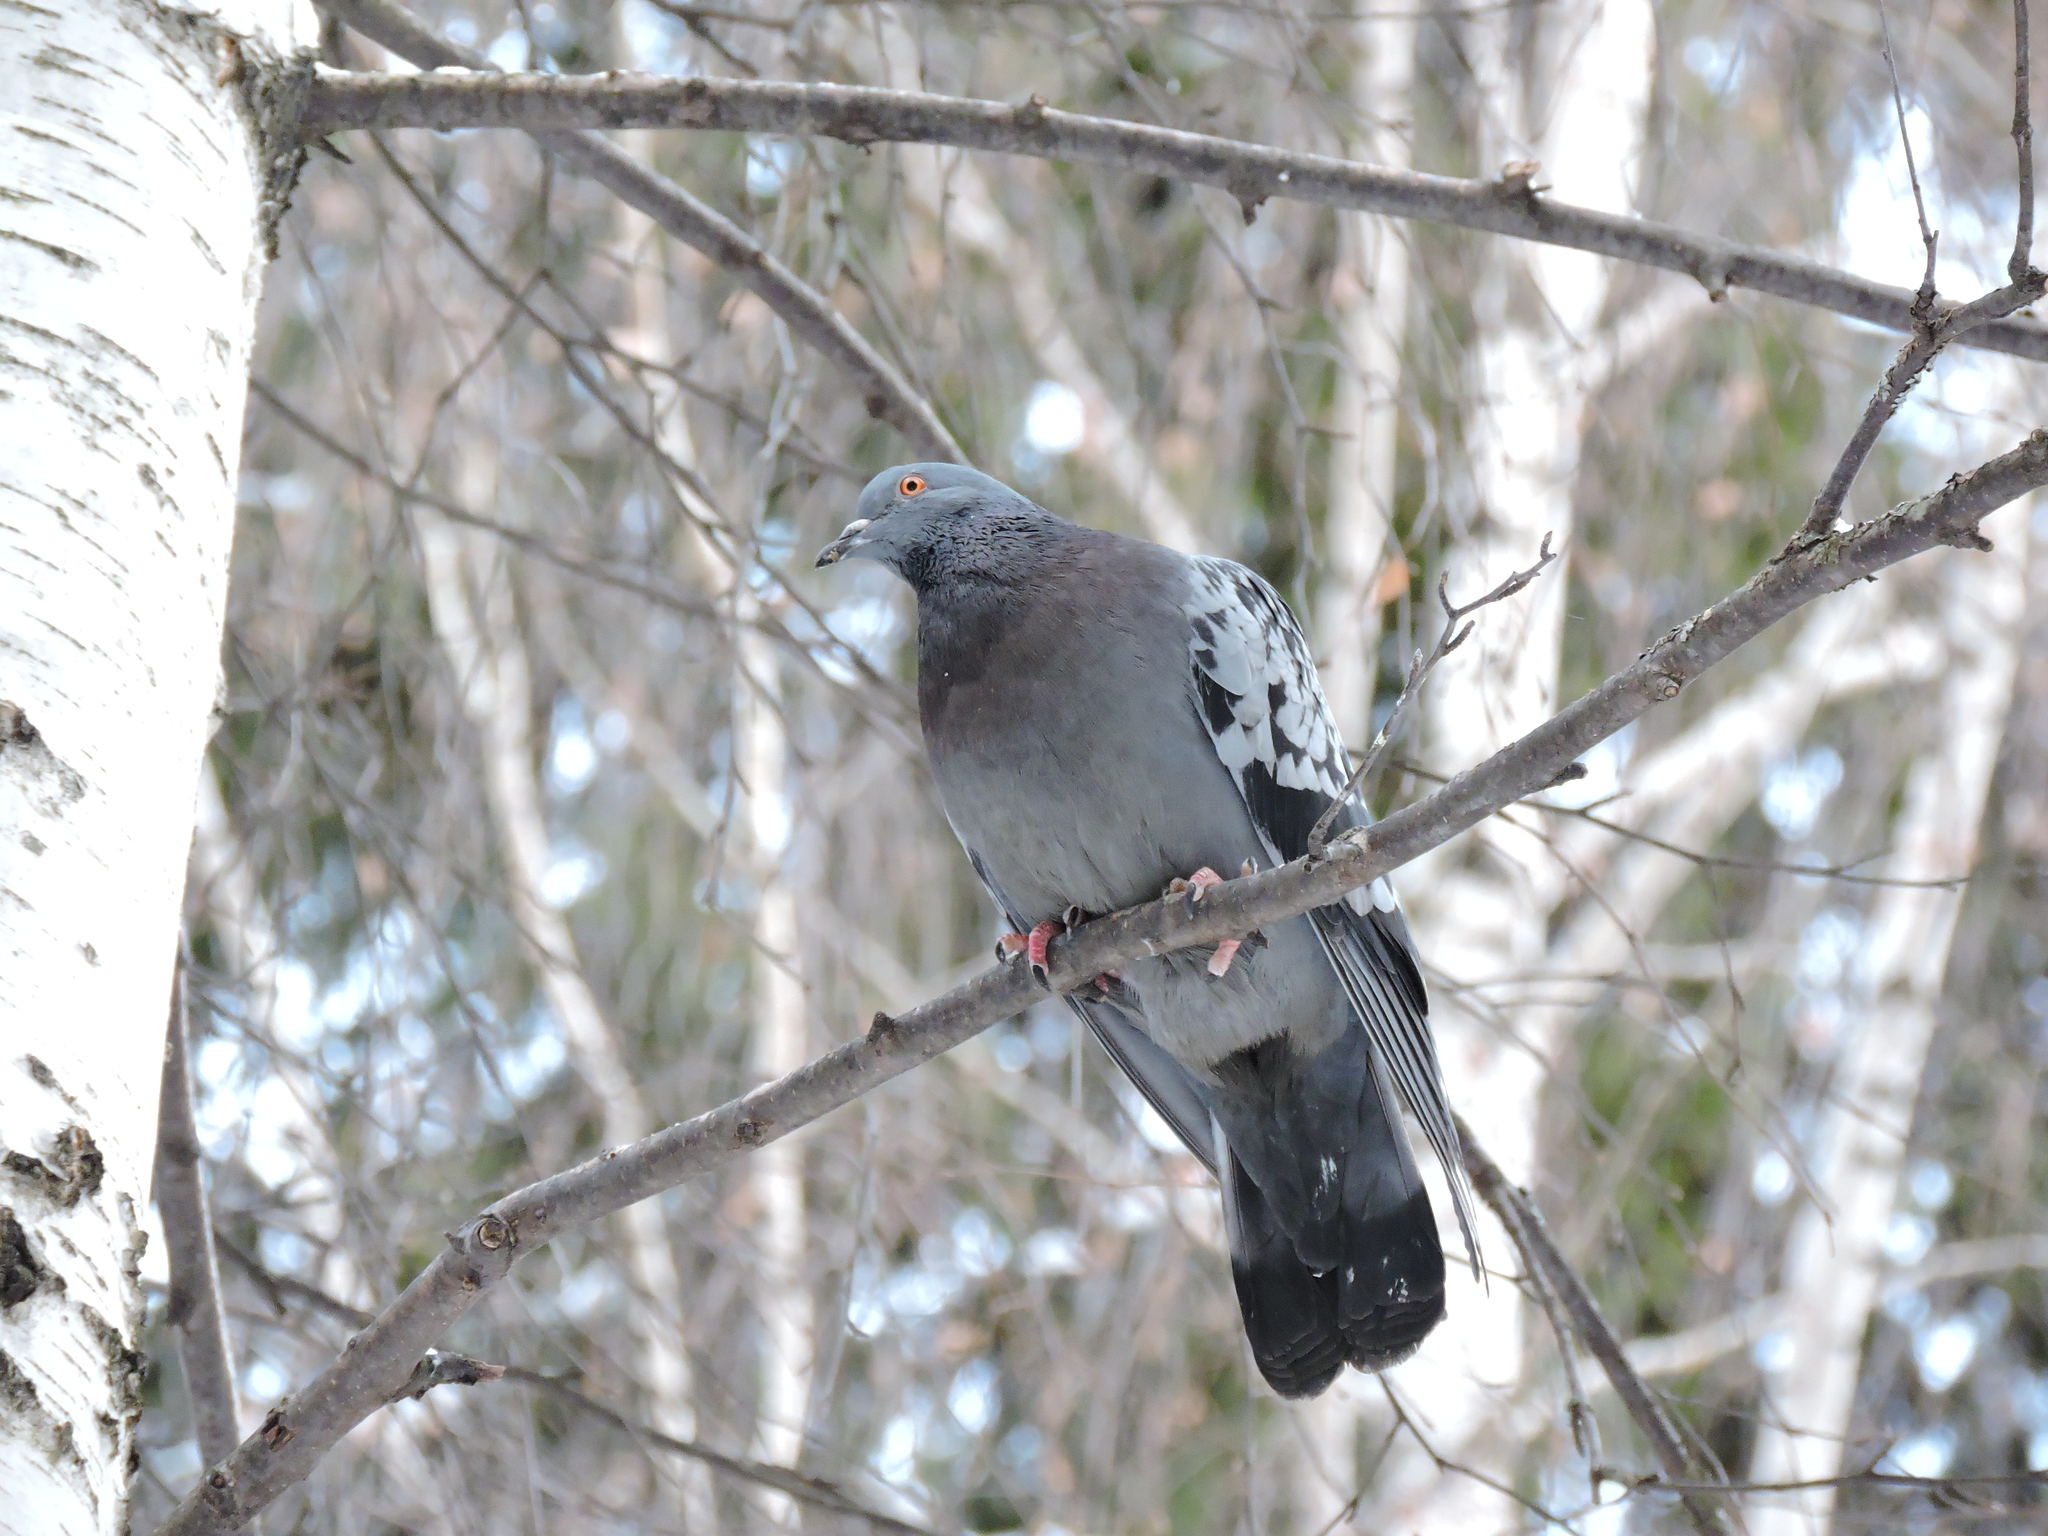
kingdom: Animalia
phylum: Chordata
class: Aves
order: Columbiformes
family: Columbidae
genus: Columba
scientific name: Columba livia
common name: Rock pigeon
